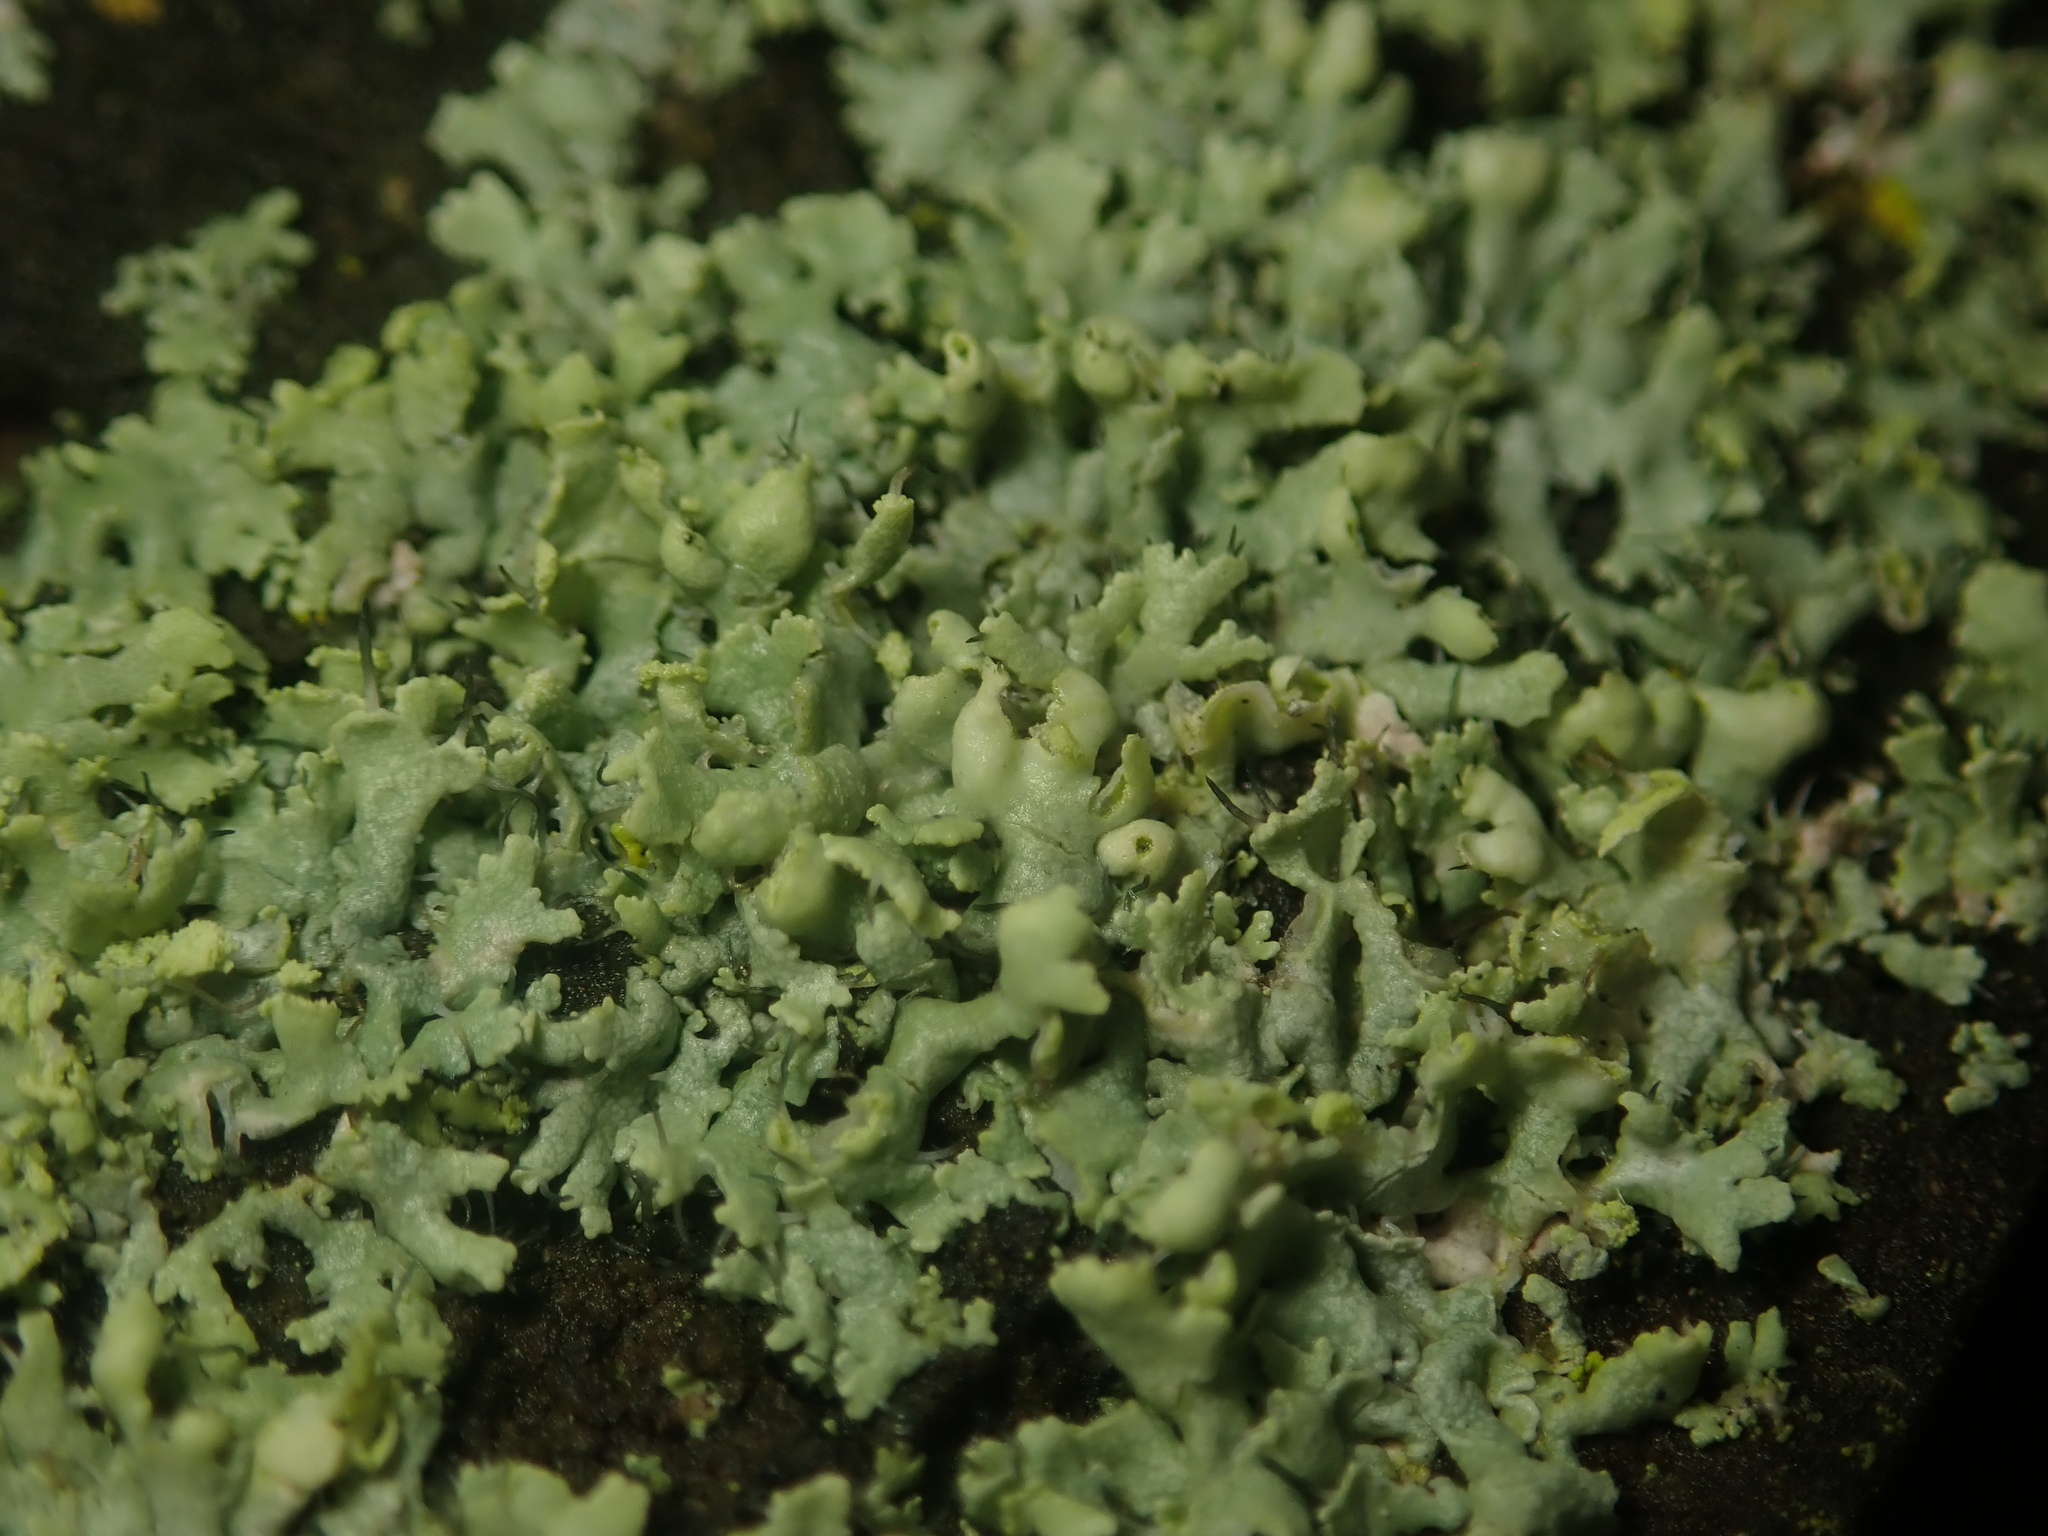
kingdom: Fungi
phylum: Ascomycota
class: Lecanoromycetes
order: Caliciales
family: Physciaceae
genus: Physcia
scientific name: Physcia adscendens
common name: Hooded rosette lichen
